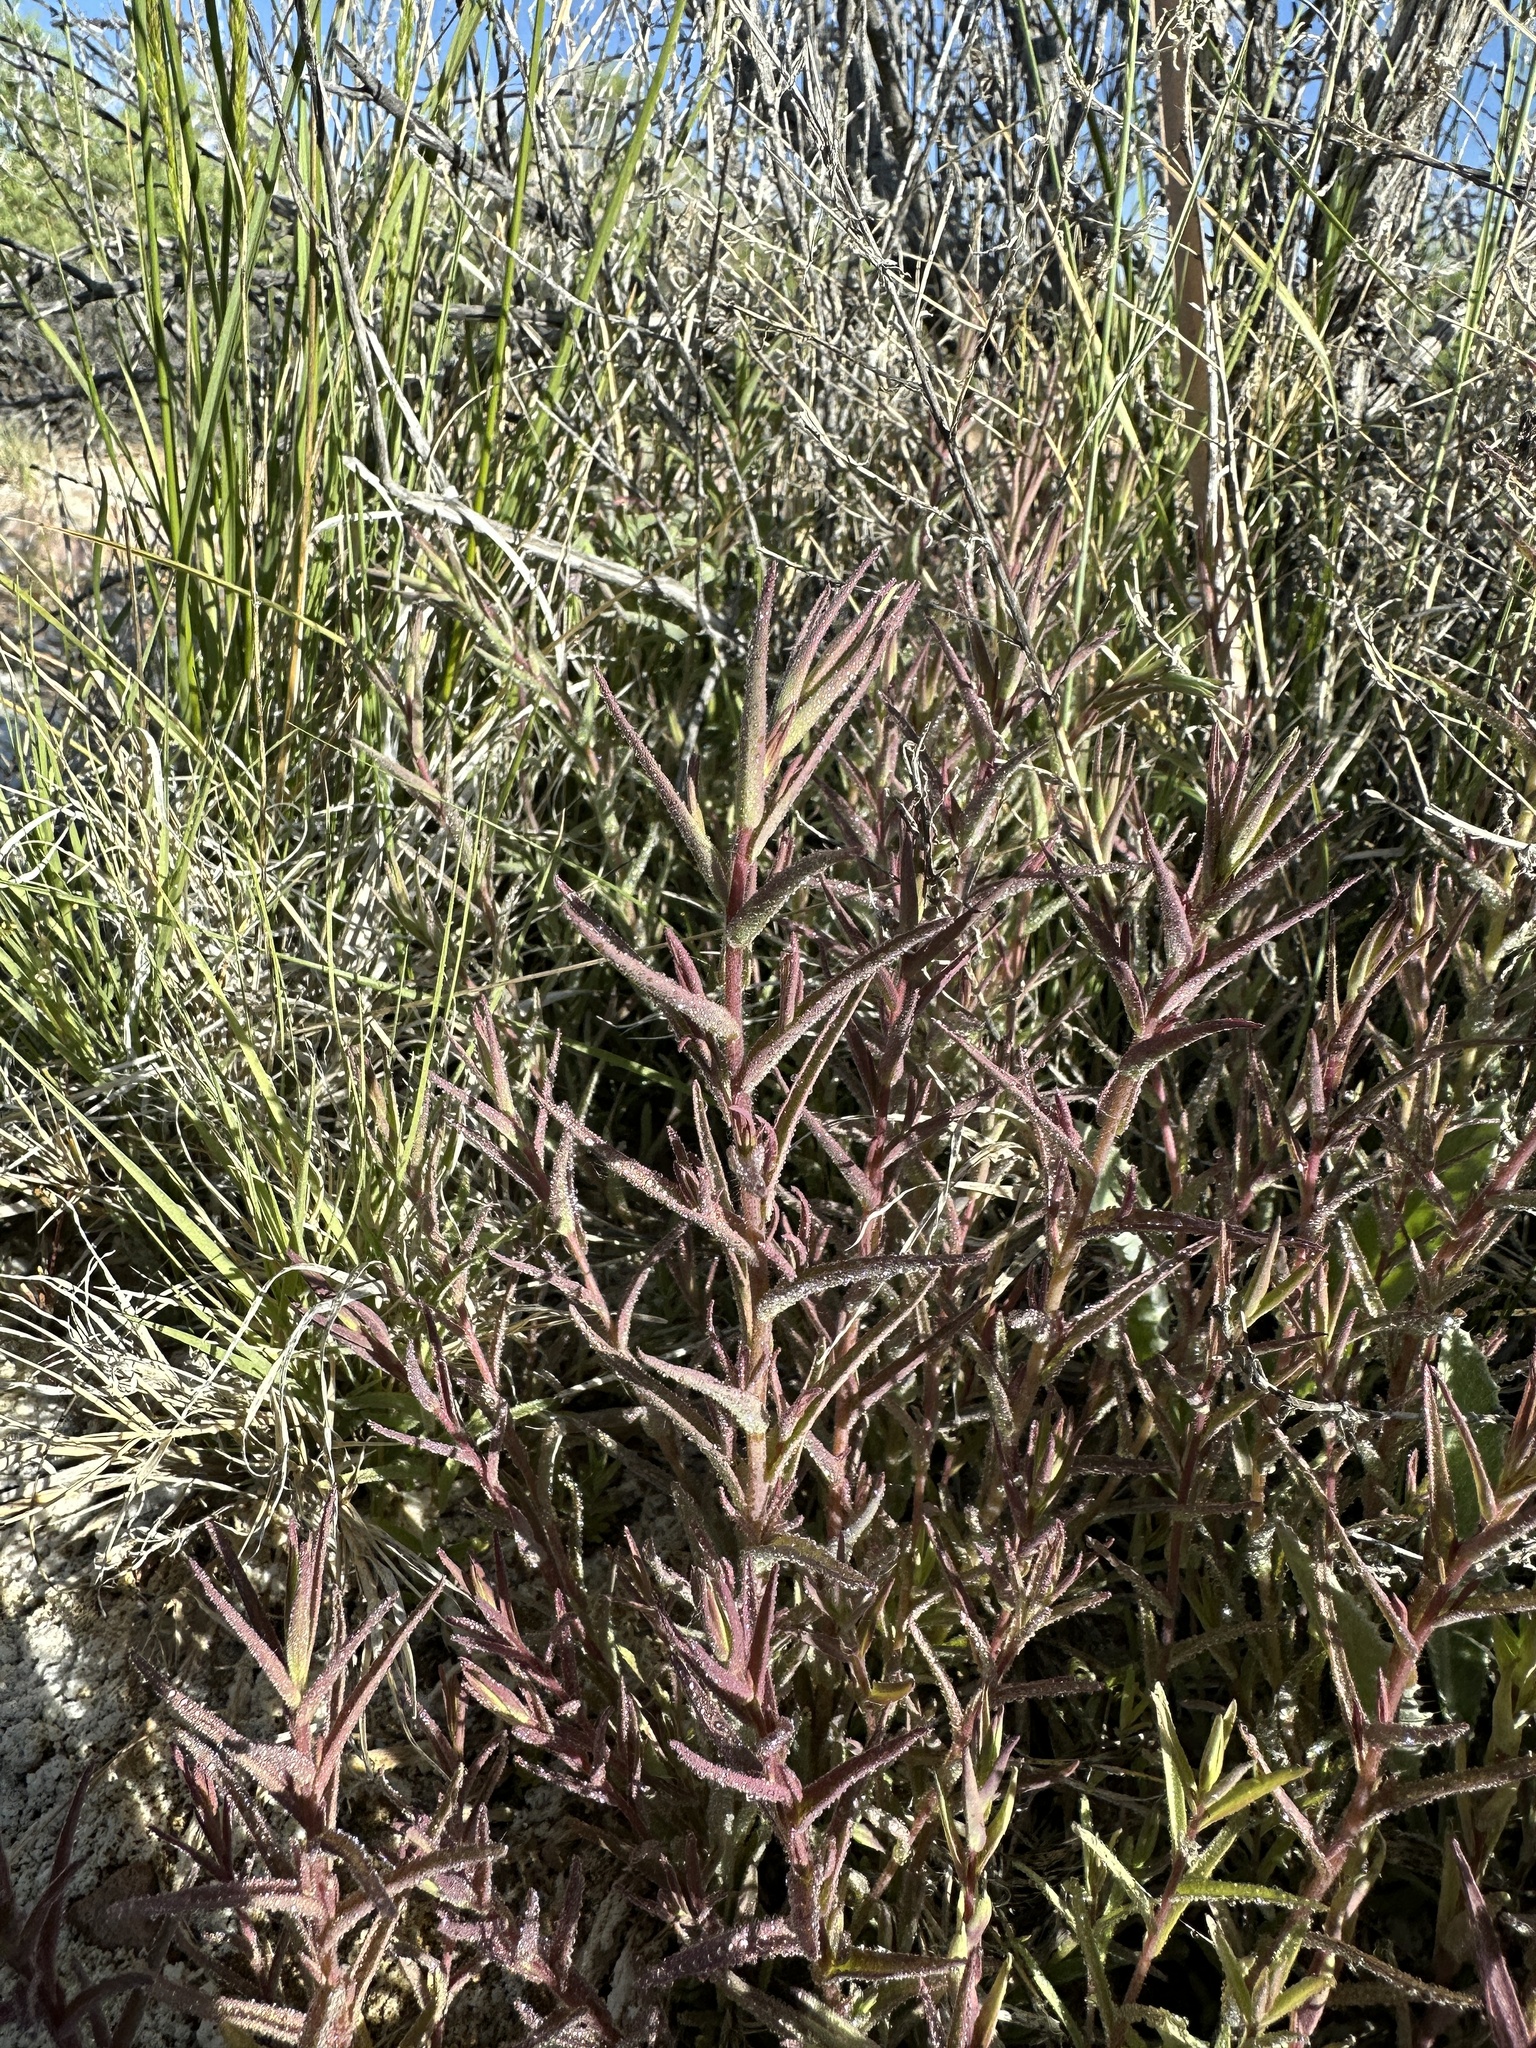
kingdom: Plantae
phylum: Tracheophyta
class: Magnoliopsida
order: Lamiales
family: Orobanchaceae
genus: Chloropyron
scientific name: Chloropyron maritimum
